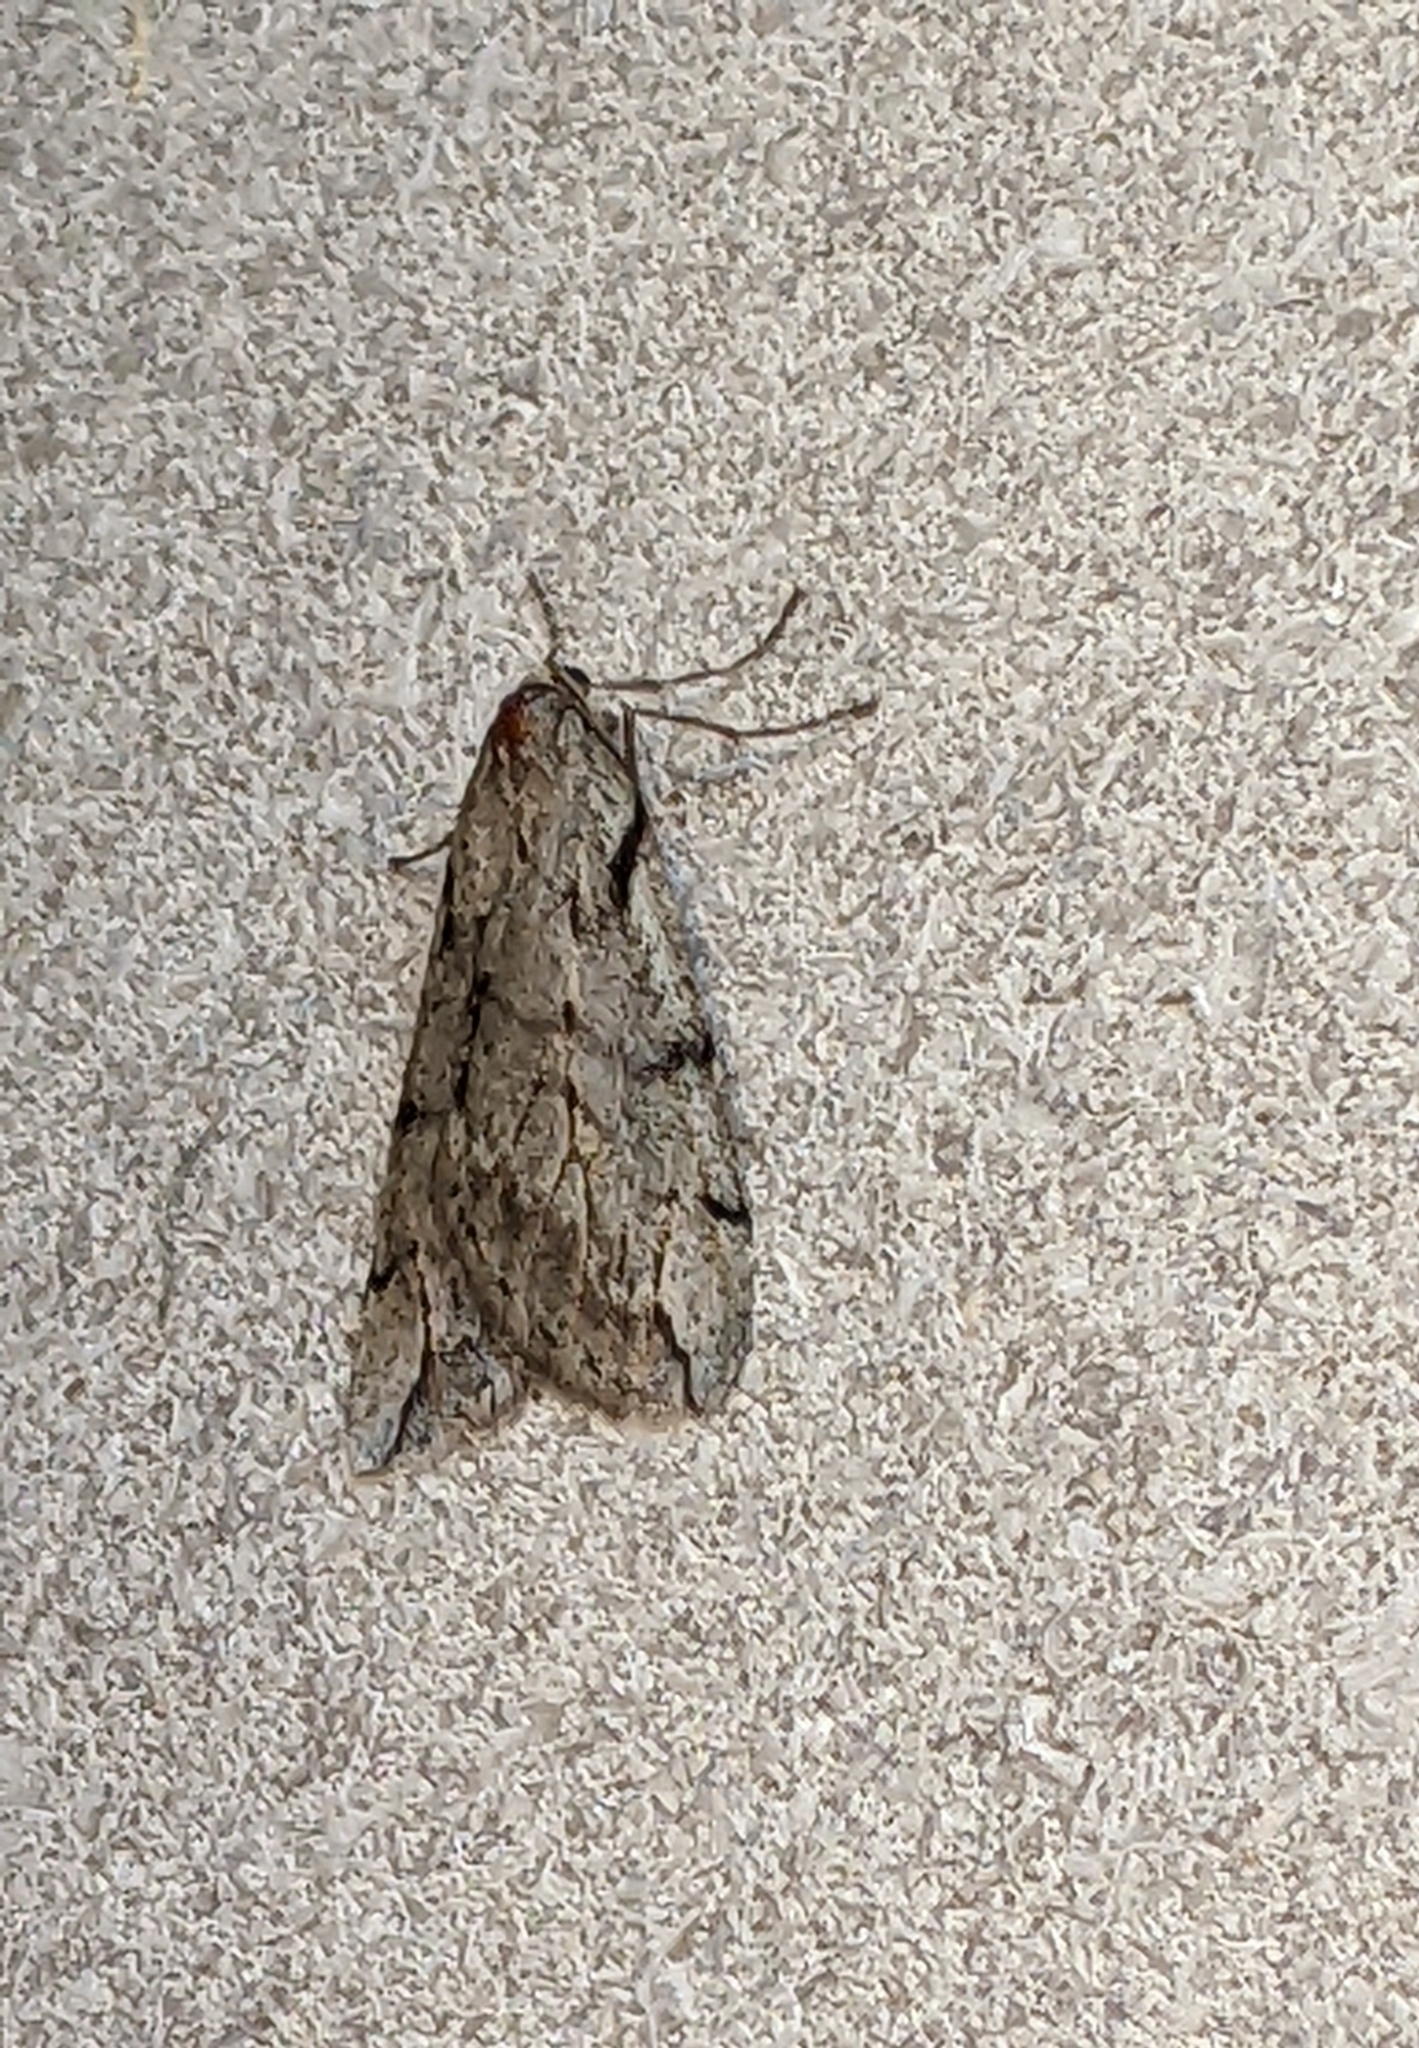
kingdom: Animalia
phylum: Arthropoda
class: Insecta
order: Lepidoptera
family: Geometridae
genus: Paleacrita
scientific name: Paleacrita vernata
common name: Spring cankerworm
